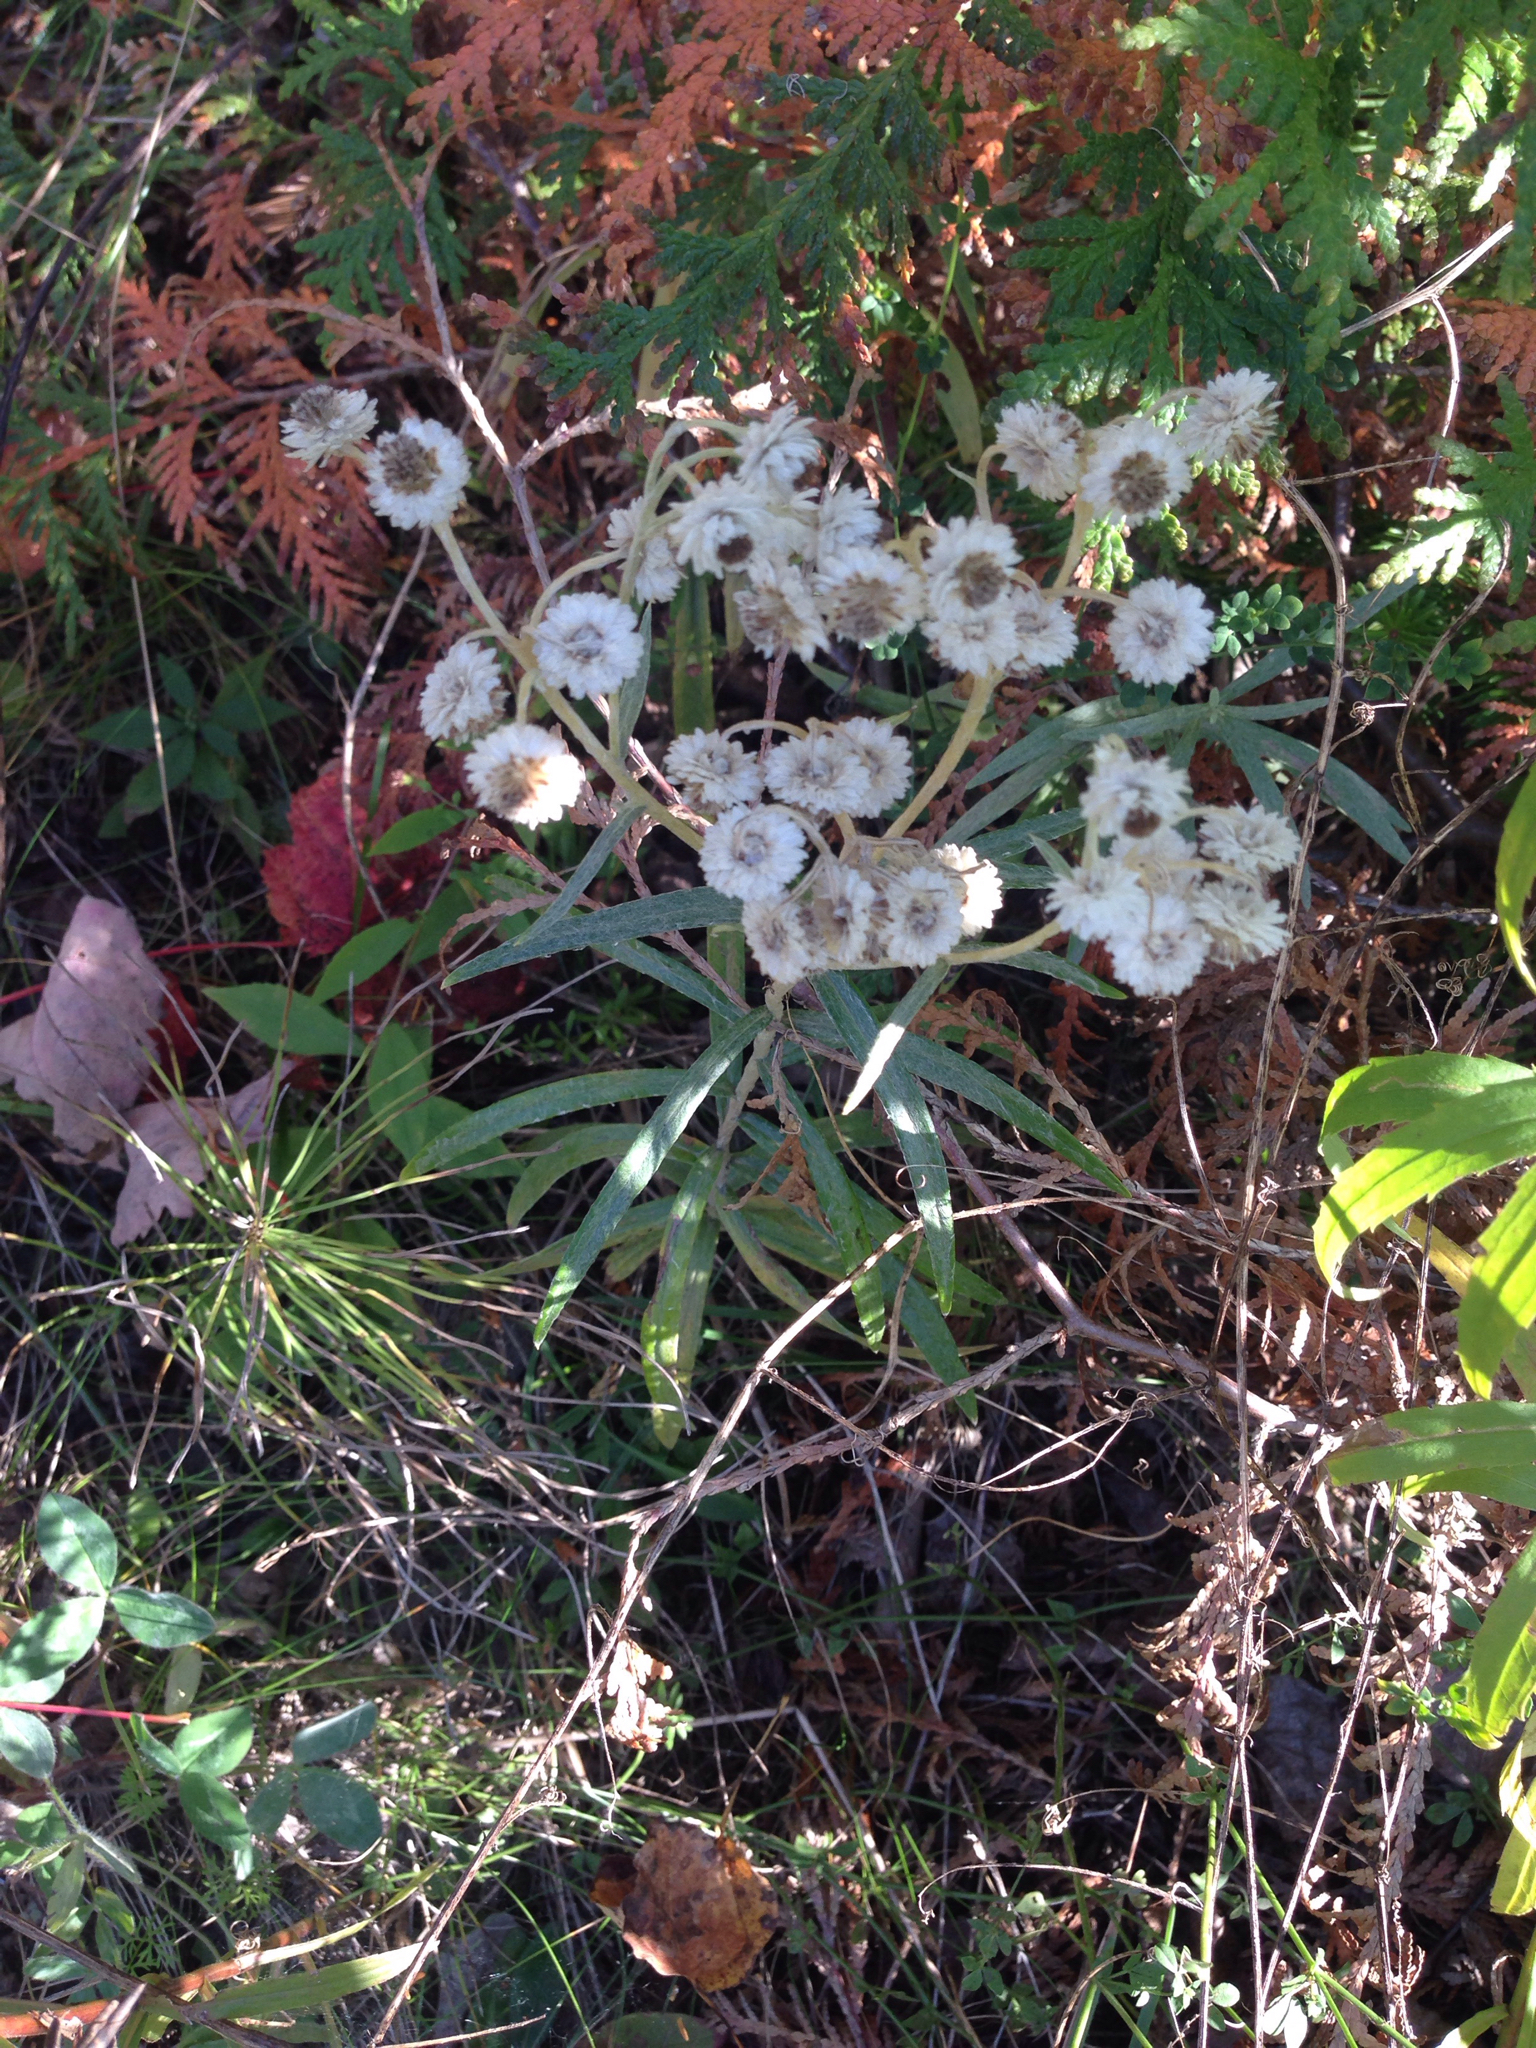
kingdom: Plantae
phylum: Tracheophyta
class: Magnoliopsida
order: Asterales
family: Asteraceae
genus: Anaphalis
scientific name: Anaphalis margaritacea
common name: Pearly everlasting
